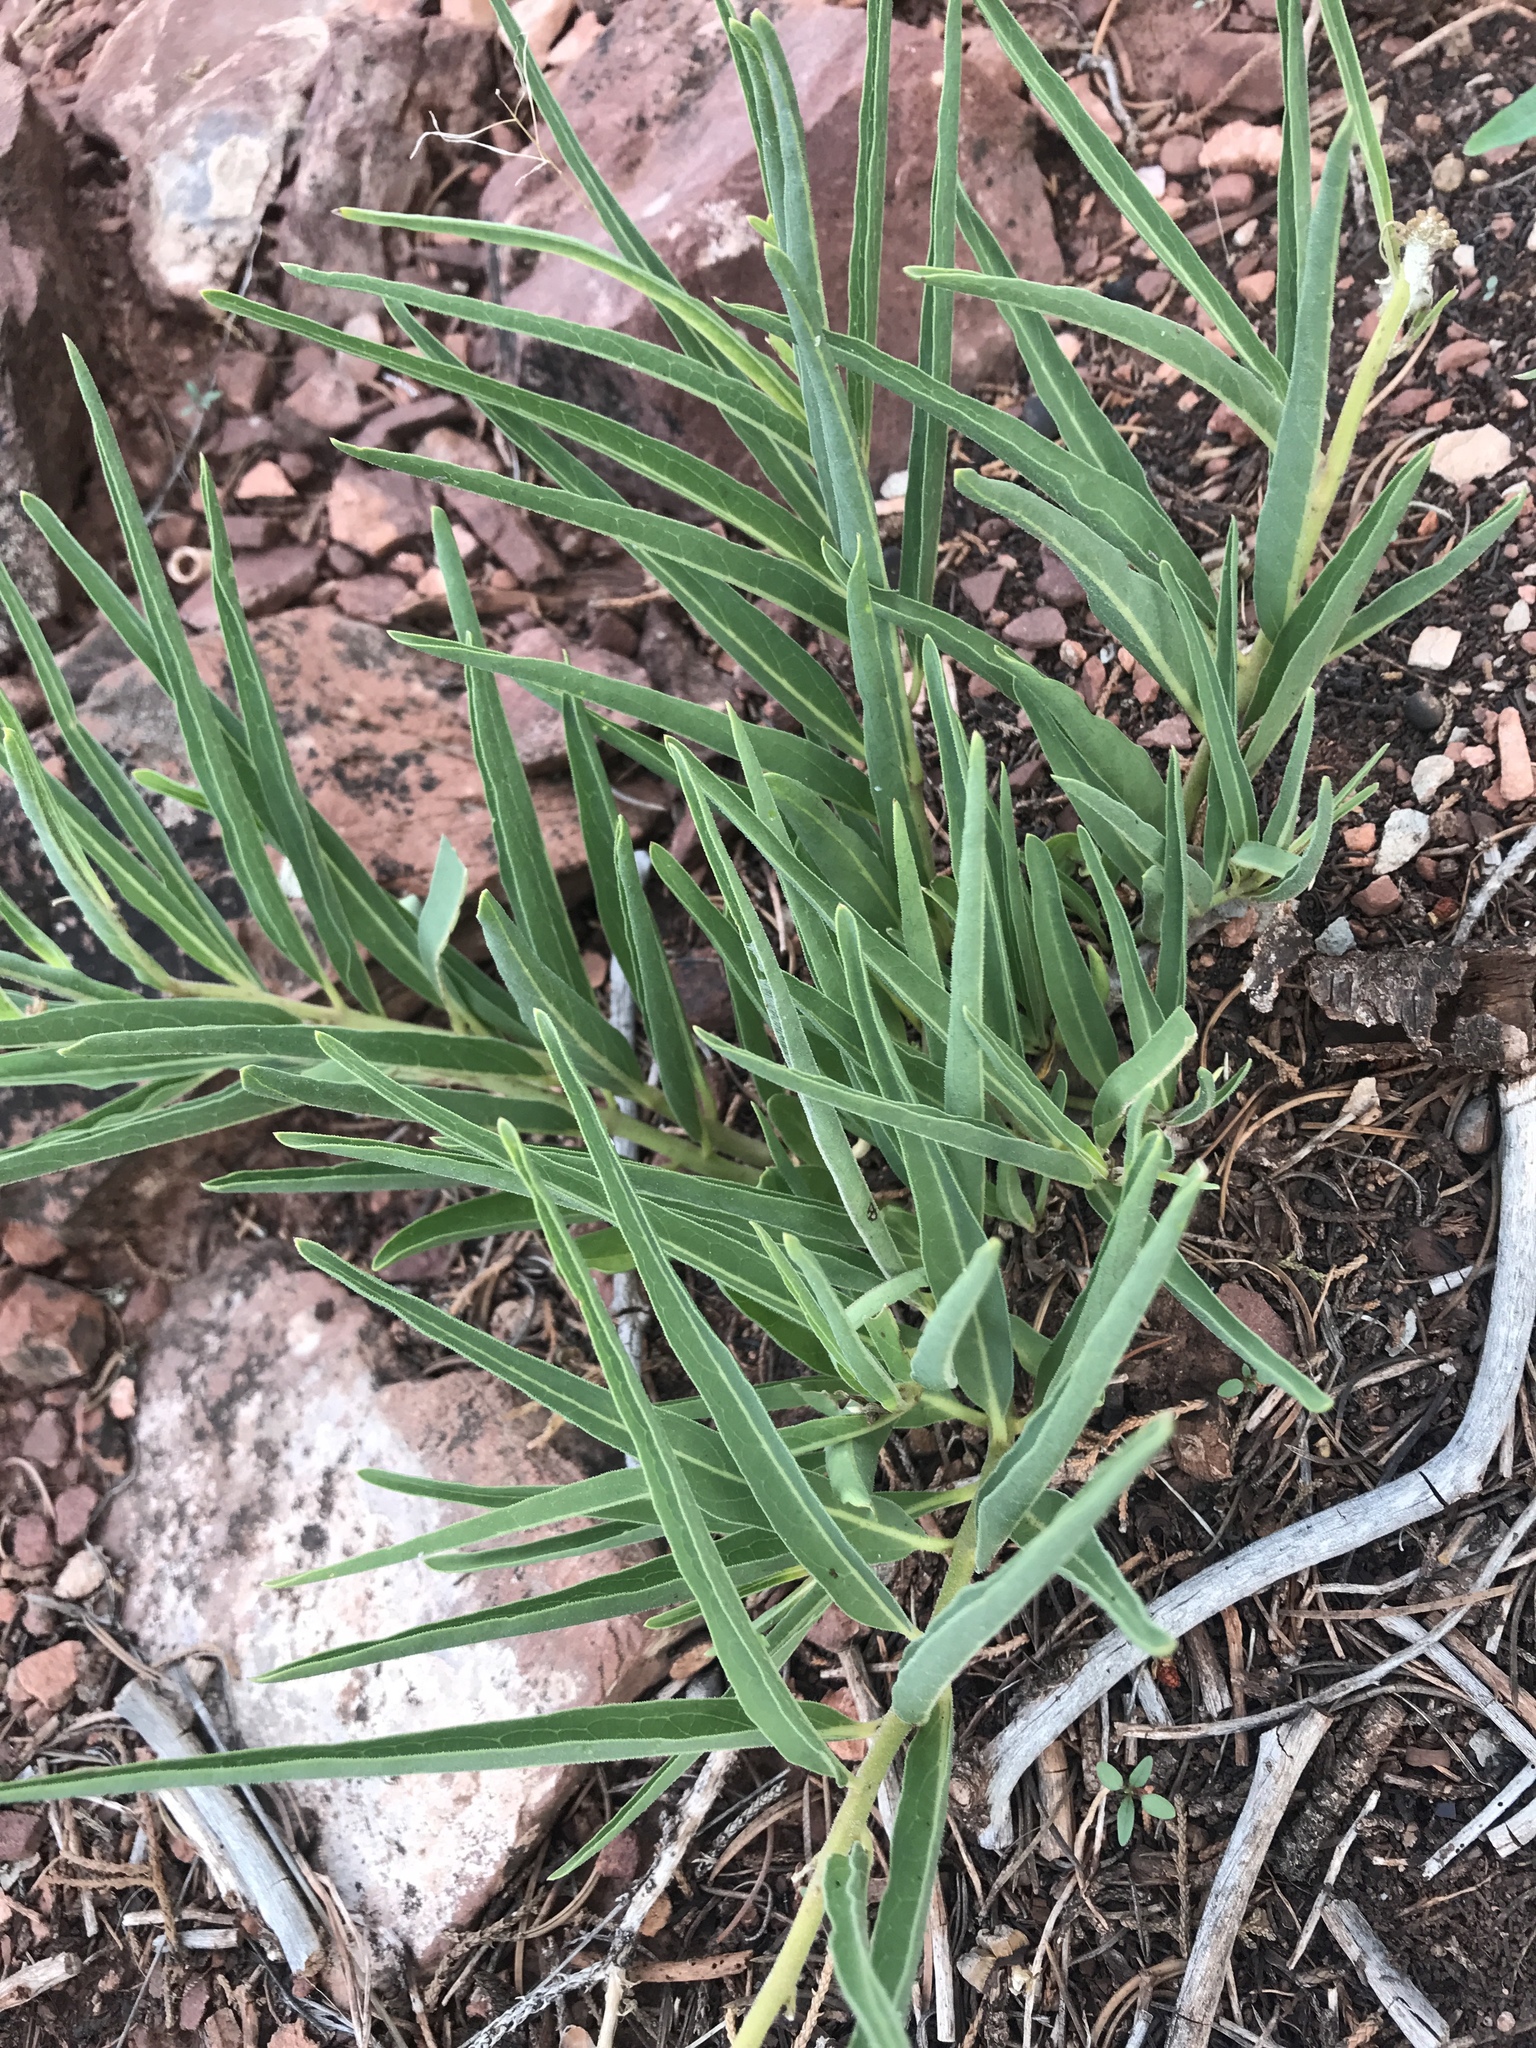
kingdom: Plantae
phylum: Tracheophyta
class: Magnoliopsida
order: Gentianales
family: Apocynaceae
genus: Asclepias
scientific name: Asclepias asperula
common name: Antelope horns
